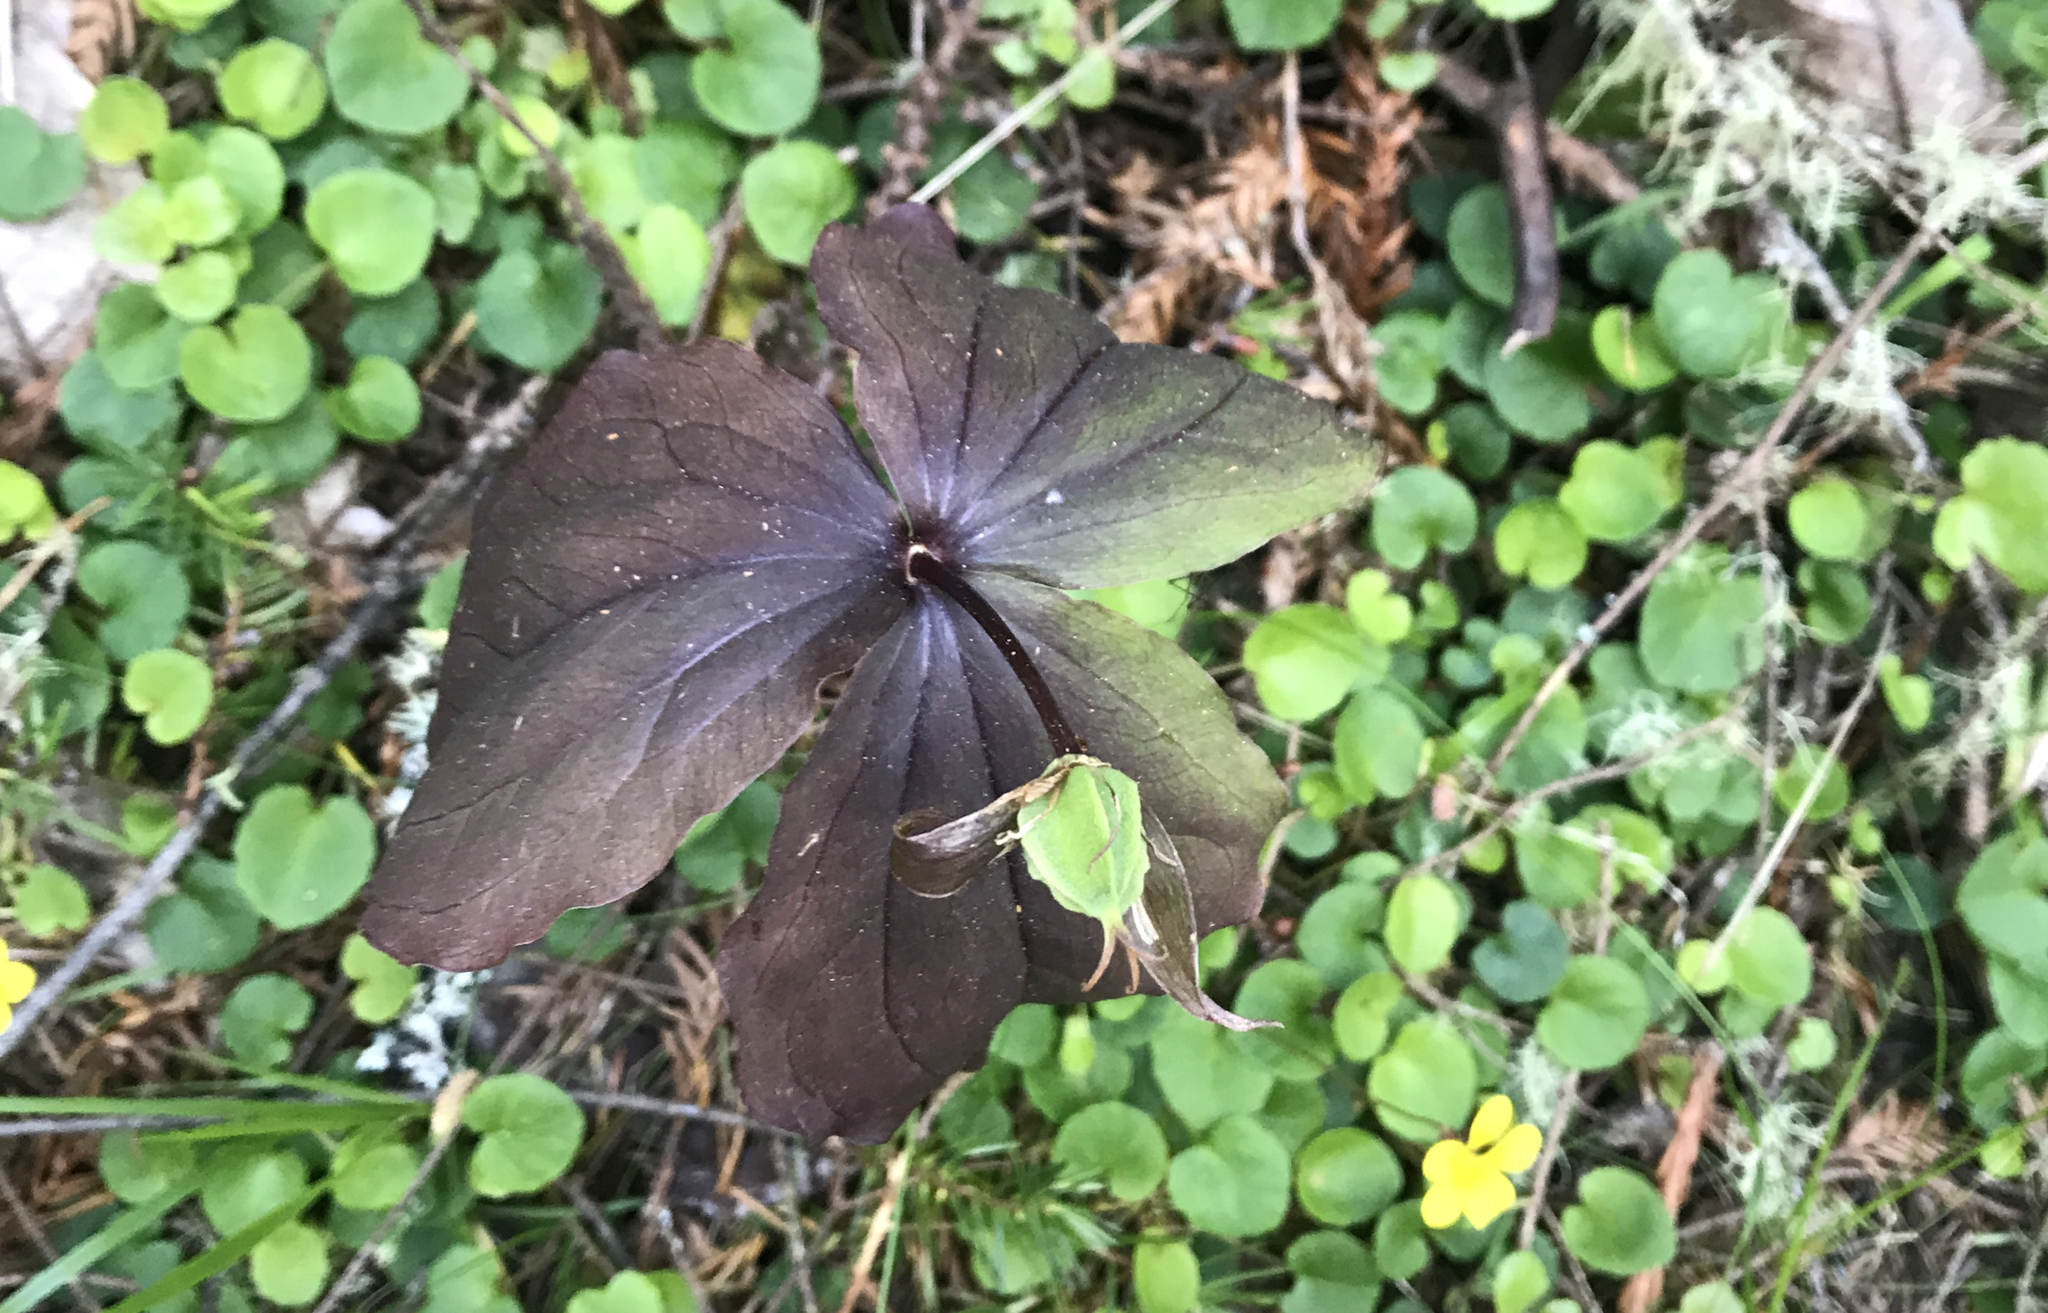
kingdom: Plantae
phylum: Tracheophyta
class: Liliopsida
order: Liliales
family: Melanthiaceae
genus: Trillium
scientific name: Trillium ovatum
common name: Pacific trillium
